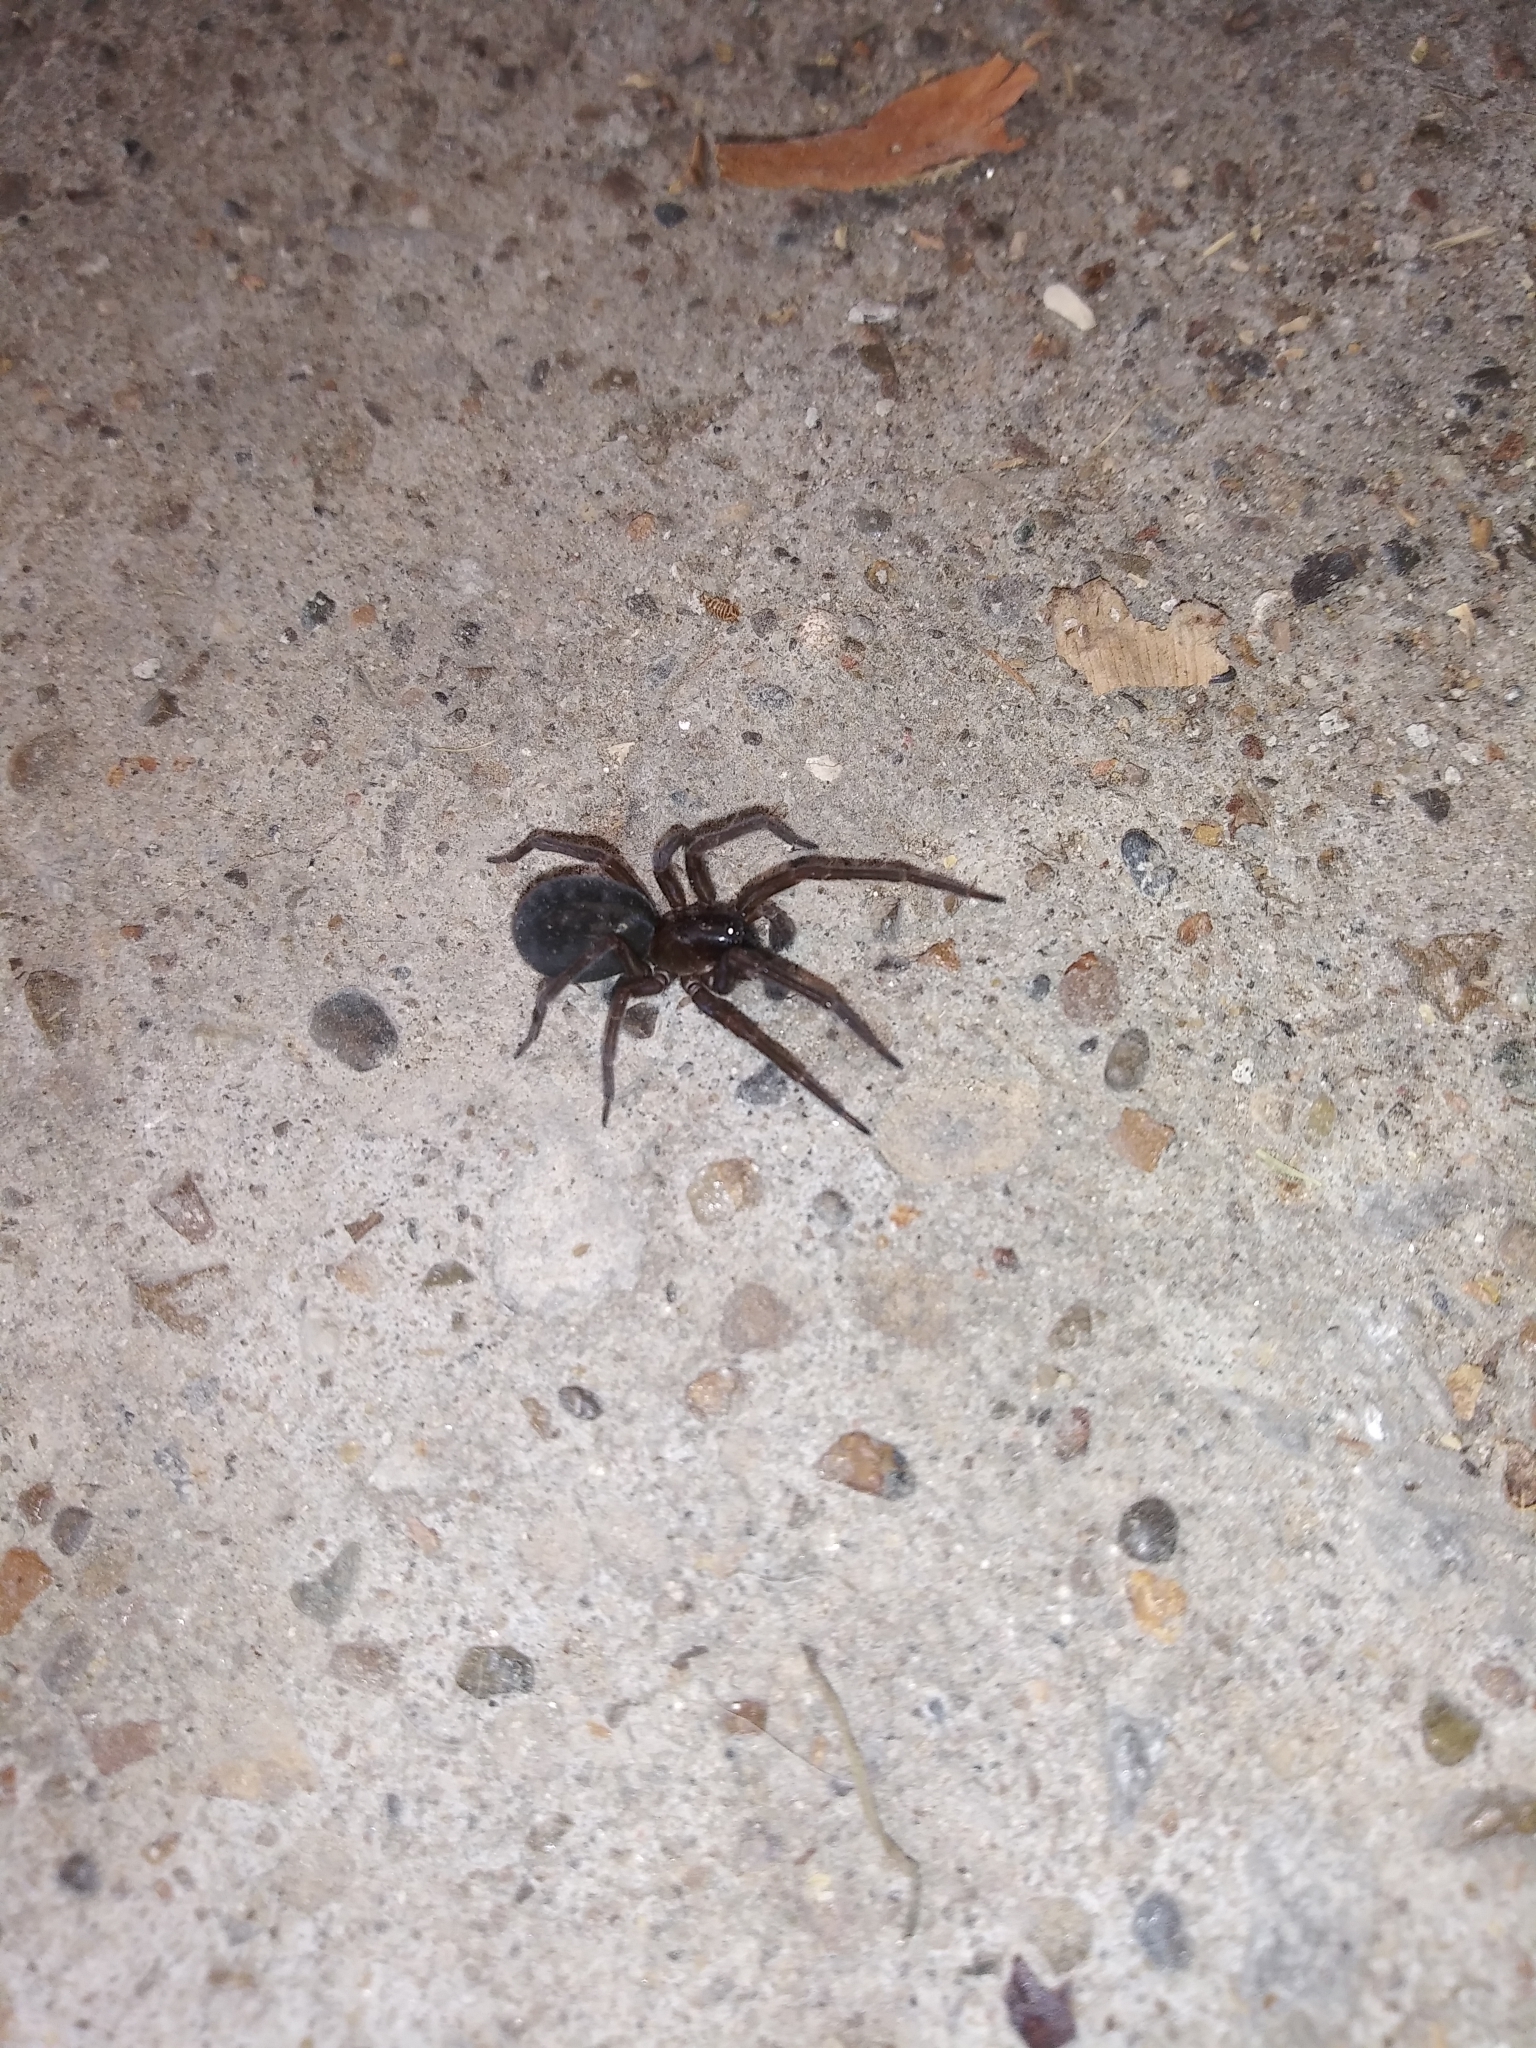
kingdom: Animalia
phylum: Arthropoda
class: Arachnida
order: Araneae
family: Amaurobiidae
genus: Amaurobius
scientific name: Amaurobius ferox
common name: Black laceweaver
